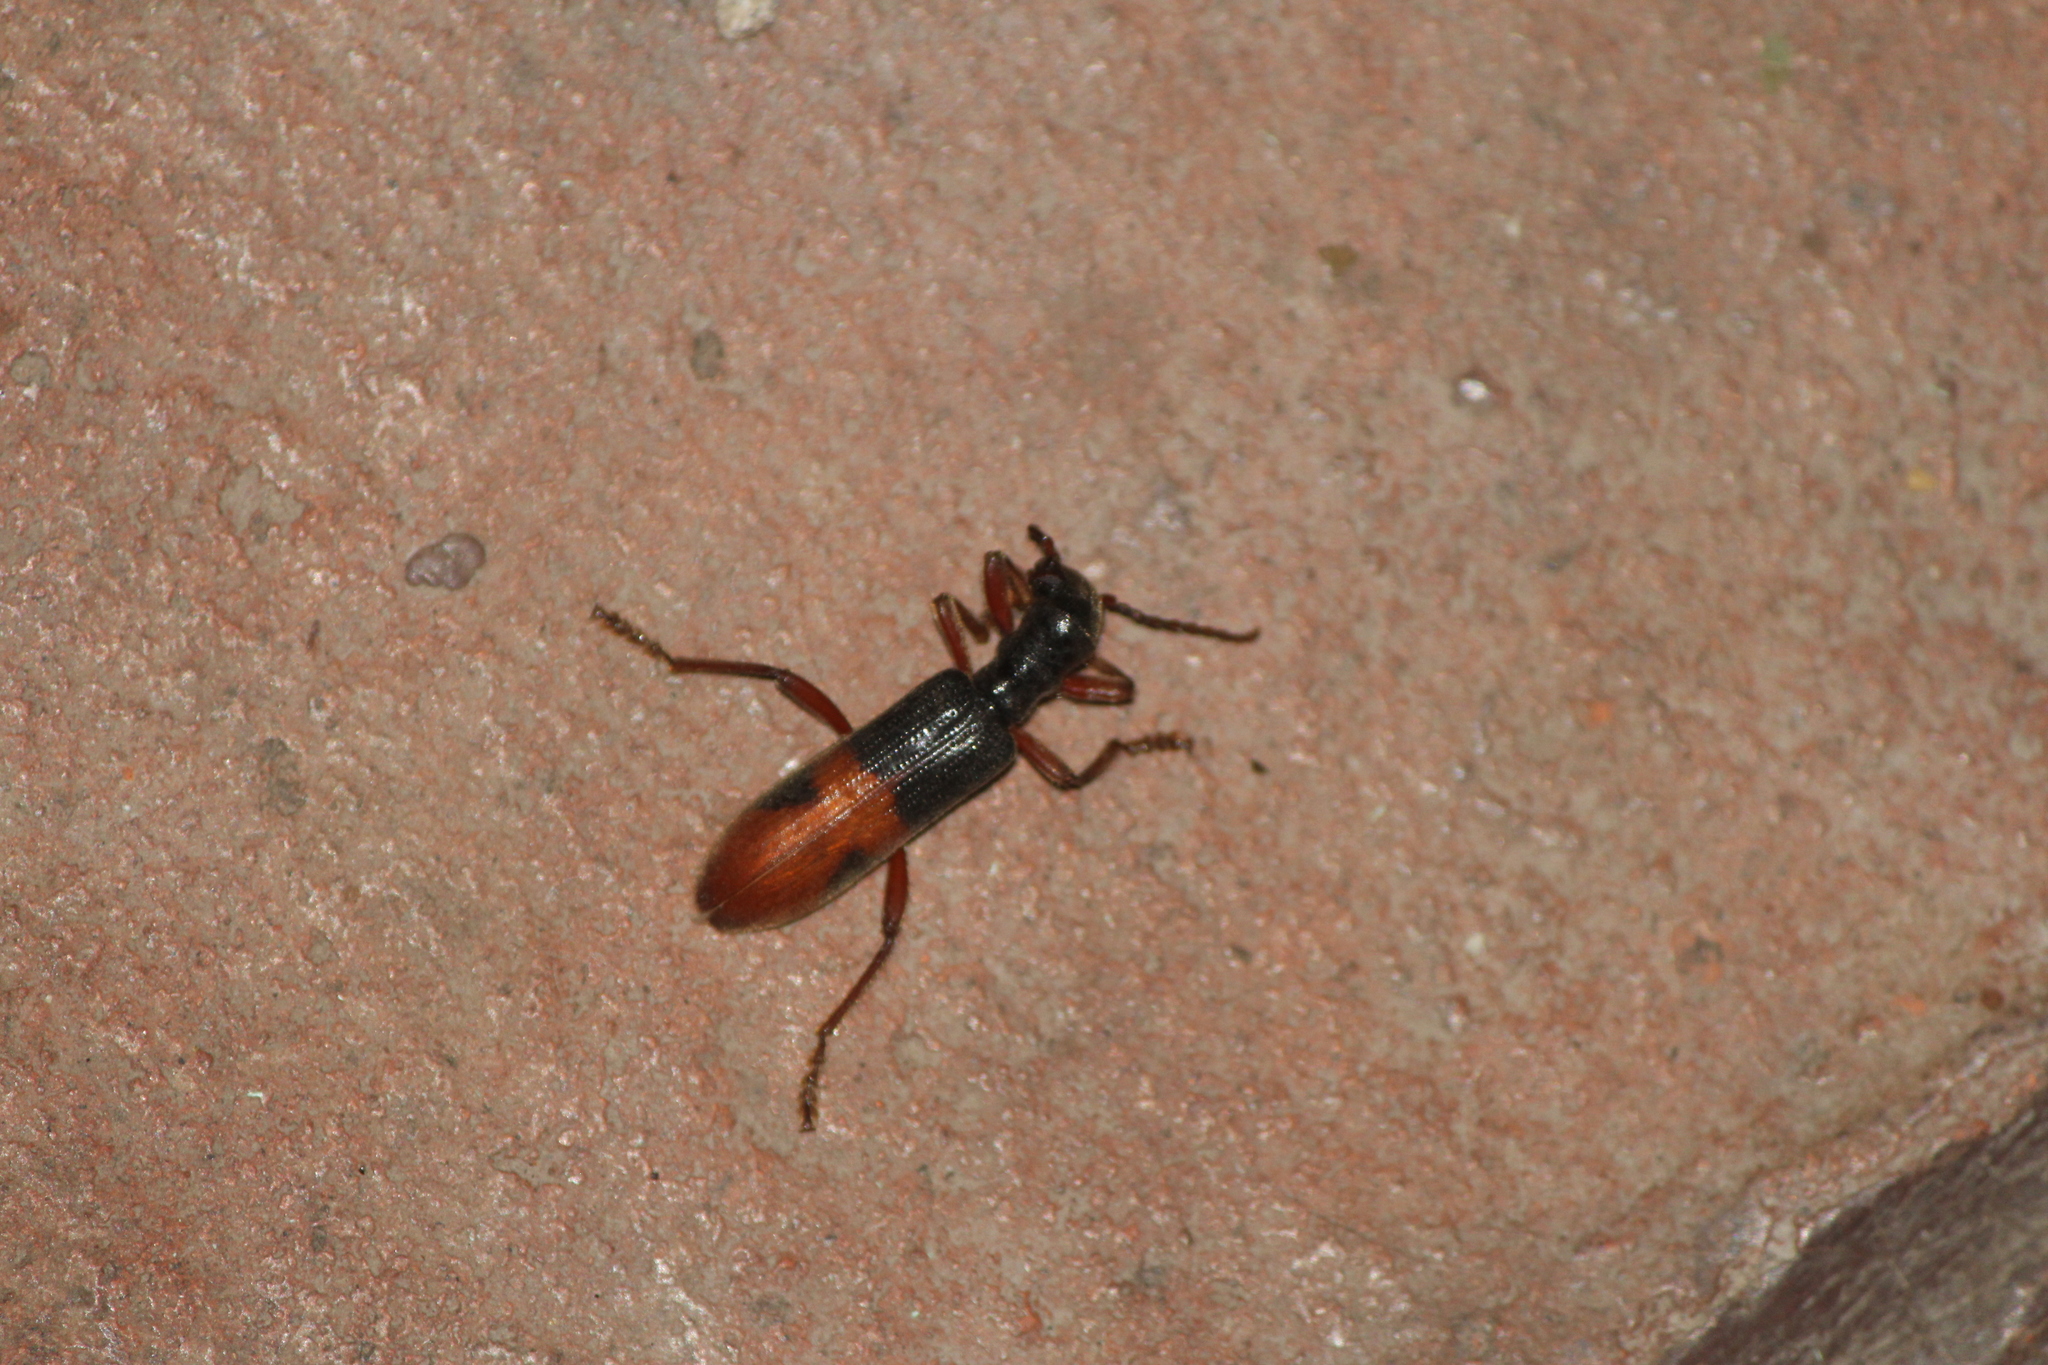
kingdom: Animalia
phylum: Arthropoda
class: Insecta
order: Coleoptera
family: Cleridae
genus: Cymatodera
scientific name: Cymatodera hopei
